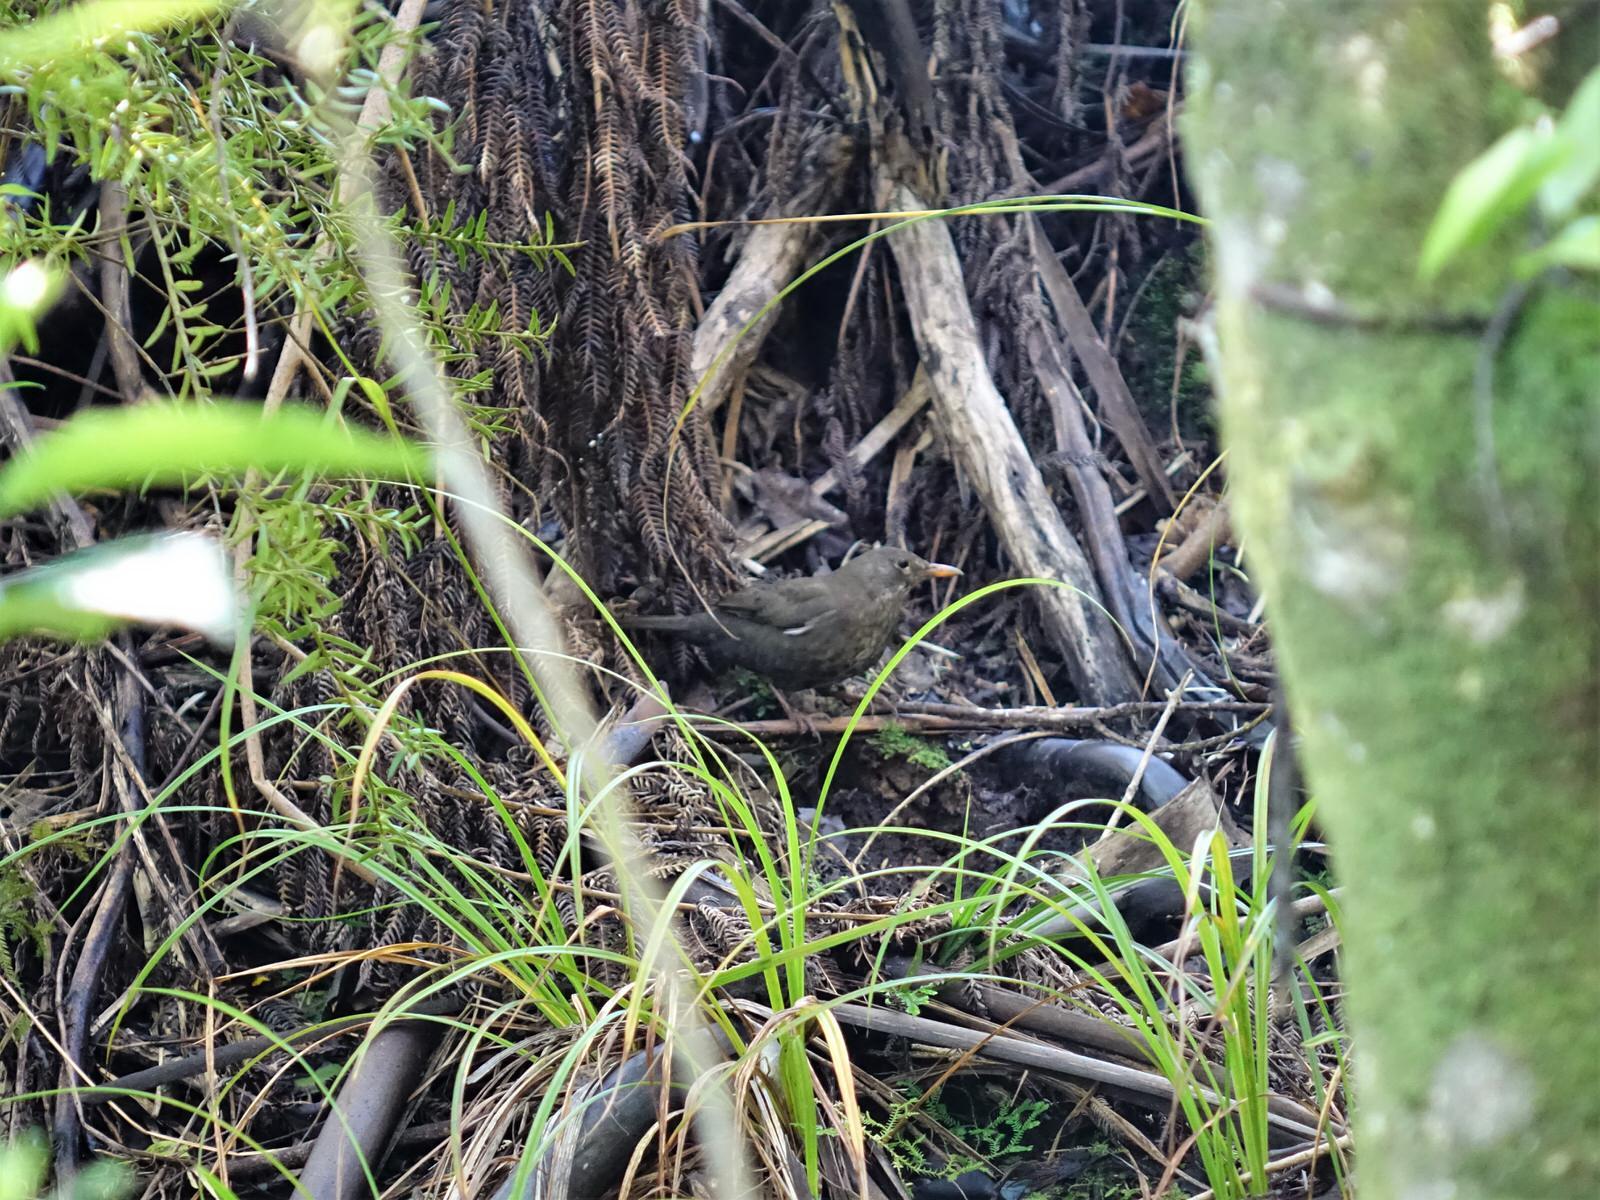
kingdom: Animalia
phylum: Chordata
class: Aves
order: Passeriformes
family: Turdidae
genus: Turdus
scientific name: Turdus merula
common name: Common blackbird
